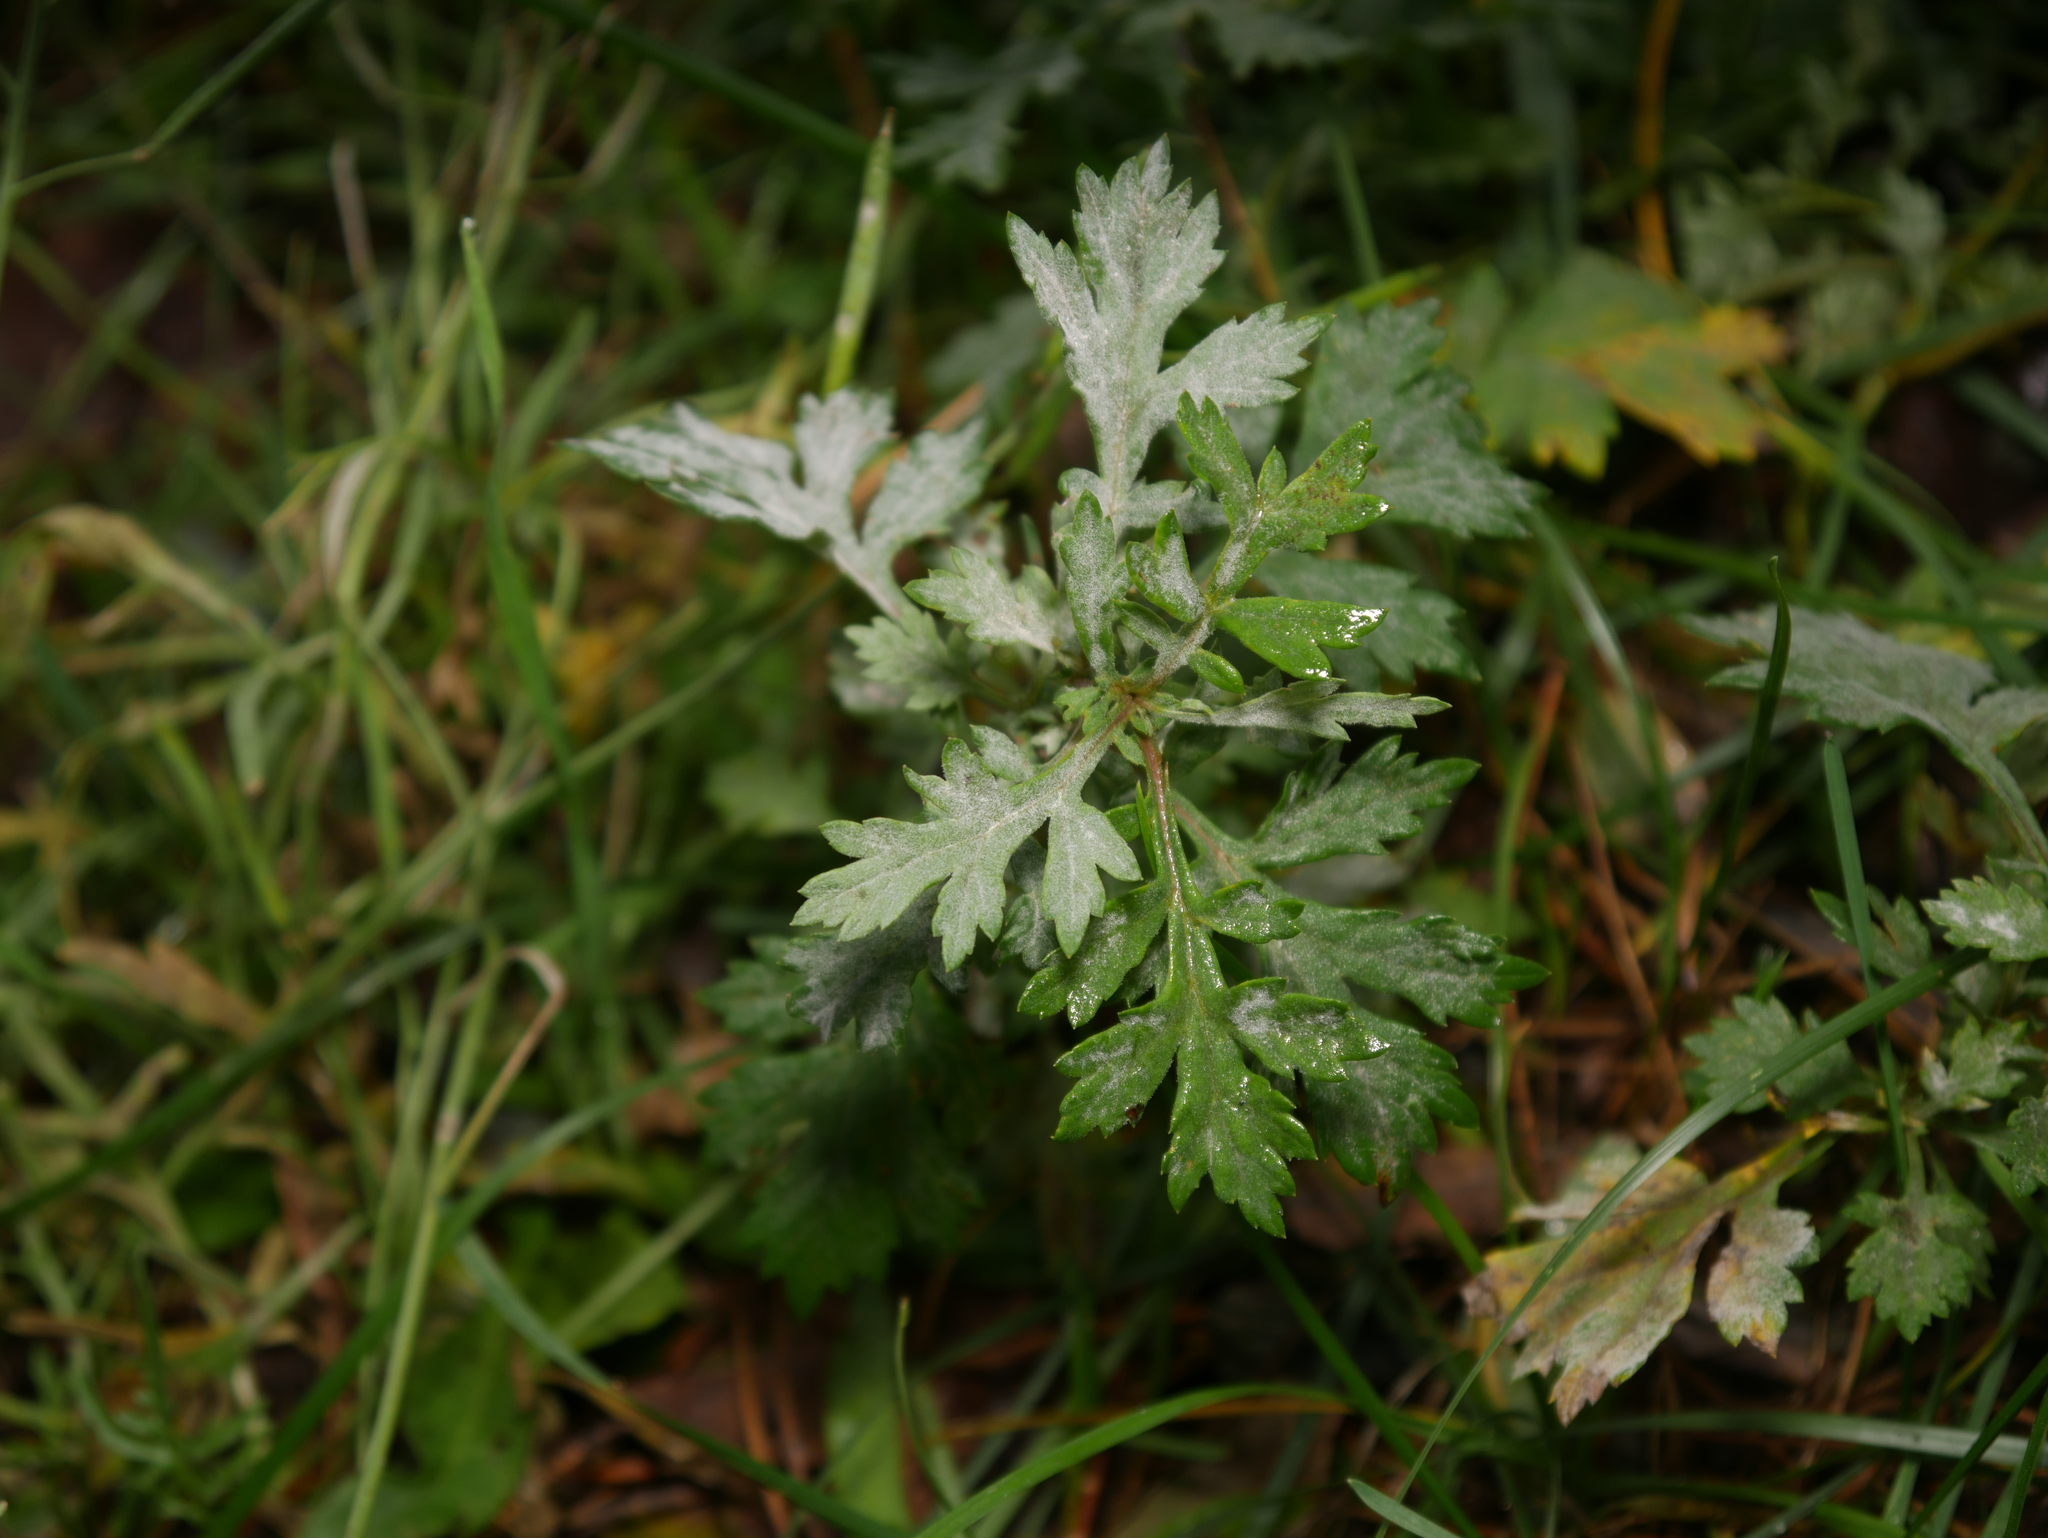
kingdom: Plantae
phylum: Tracheophyta
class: Magnoliopsida
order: Asterales
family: Asteraceae
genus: Artemisia
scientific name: Artemisia vulgaris
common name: Mugwort
